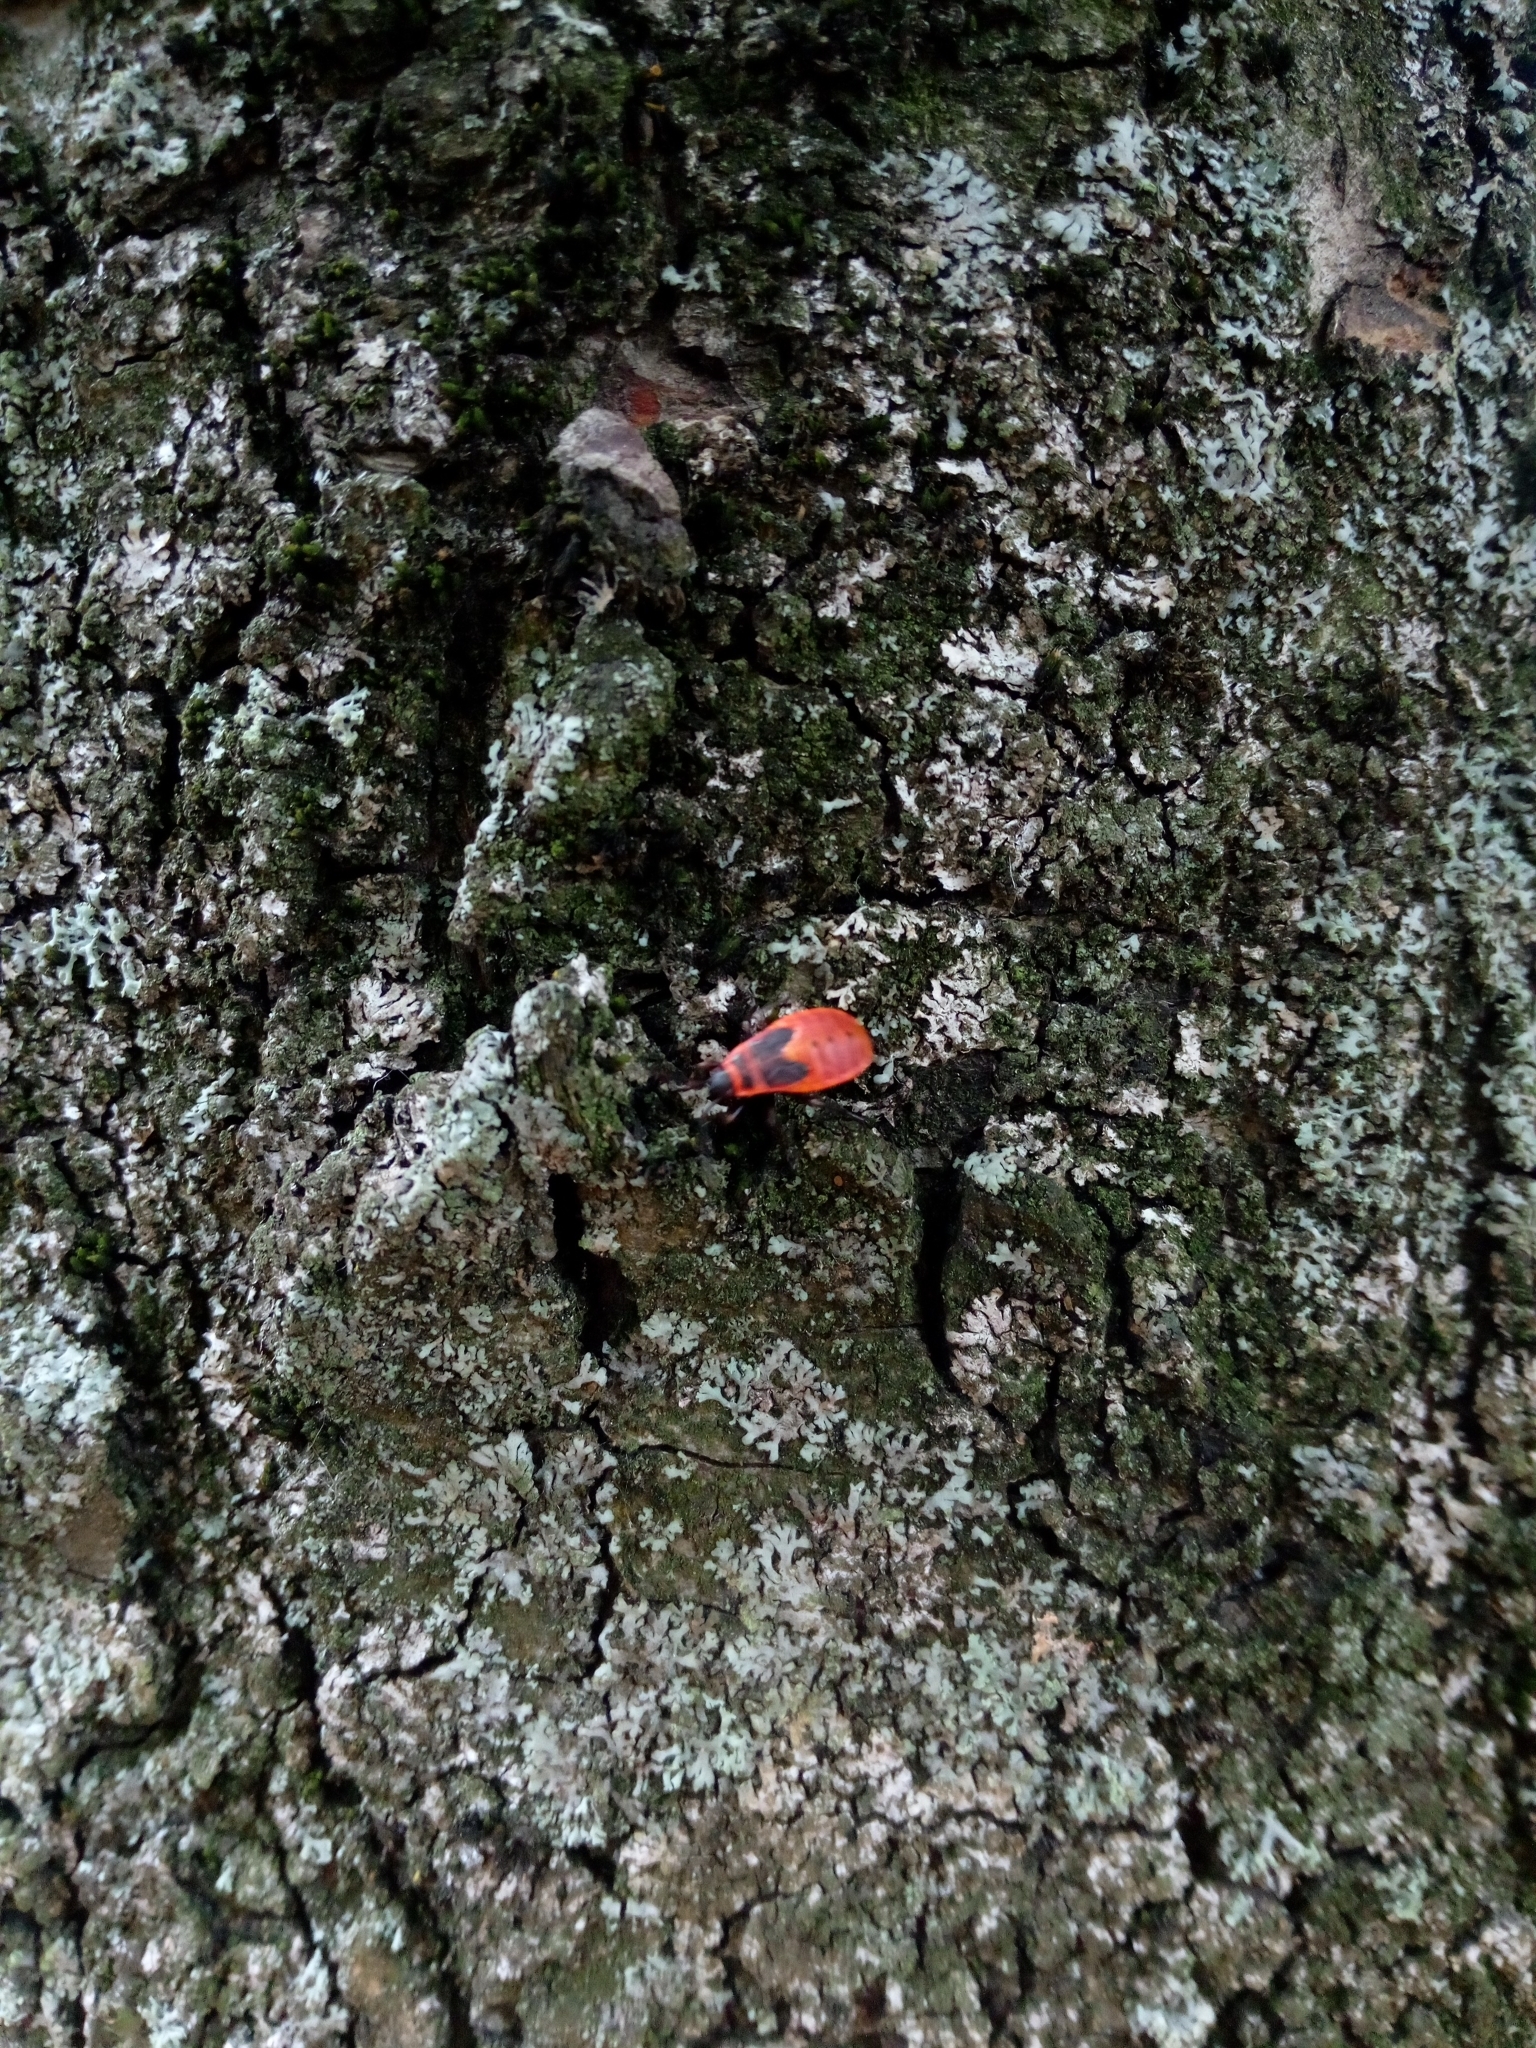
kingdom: Animalia
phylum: Arthropoda
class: Insecta
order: Hemiptera
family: Pyrrhocoridae
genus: Pyrrhocoris
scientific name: Pyrrhocoris apterus
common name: Firebug
